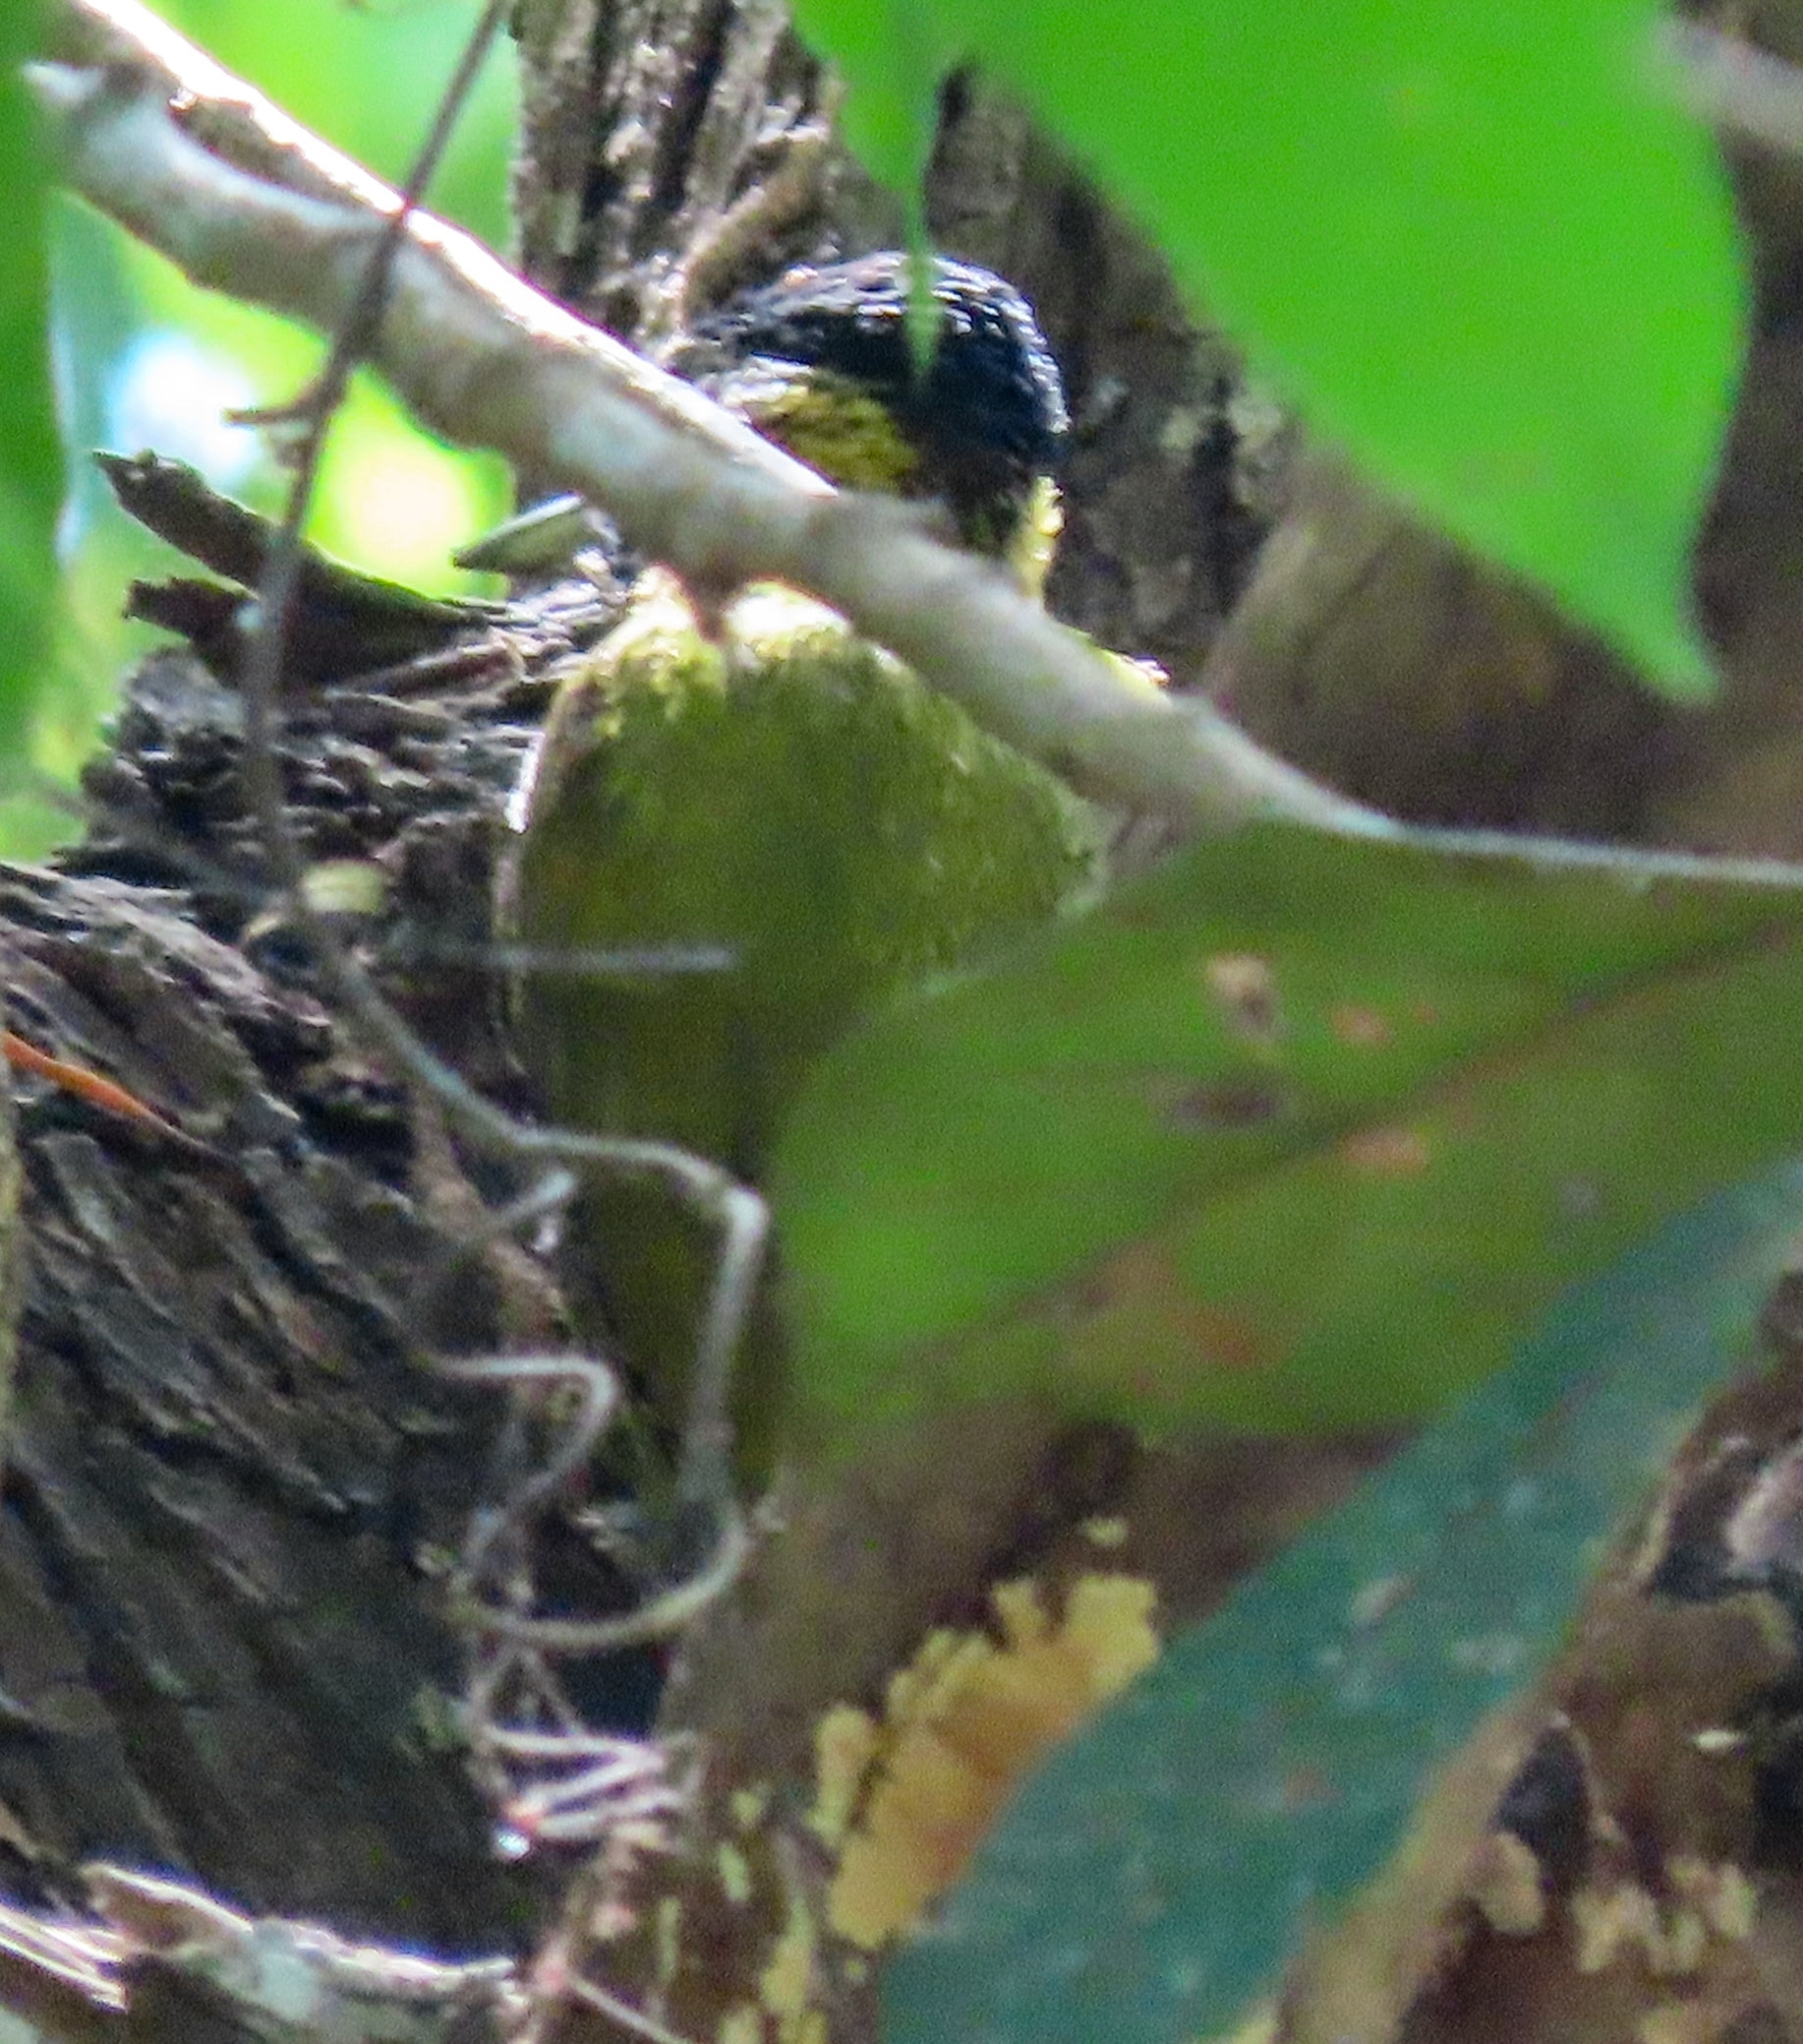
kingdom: Animalia
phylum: Chordata
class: Aves
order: Piciformes
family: Picidae
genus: Picus
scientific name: Picus vittatus
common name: Laced woodpecker
